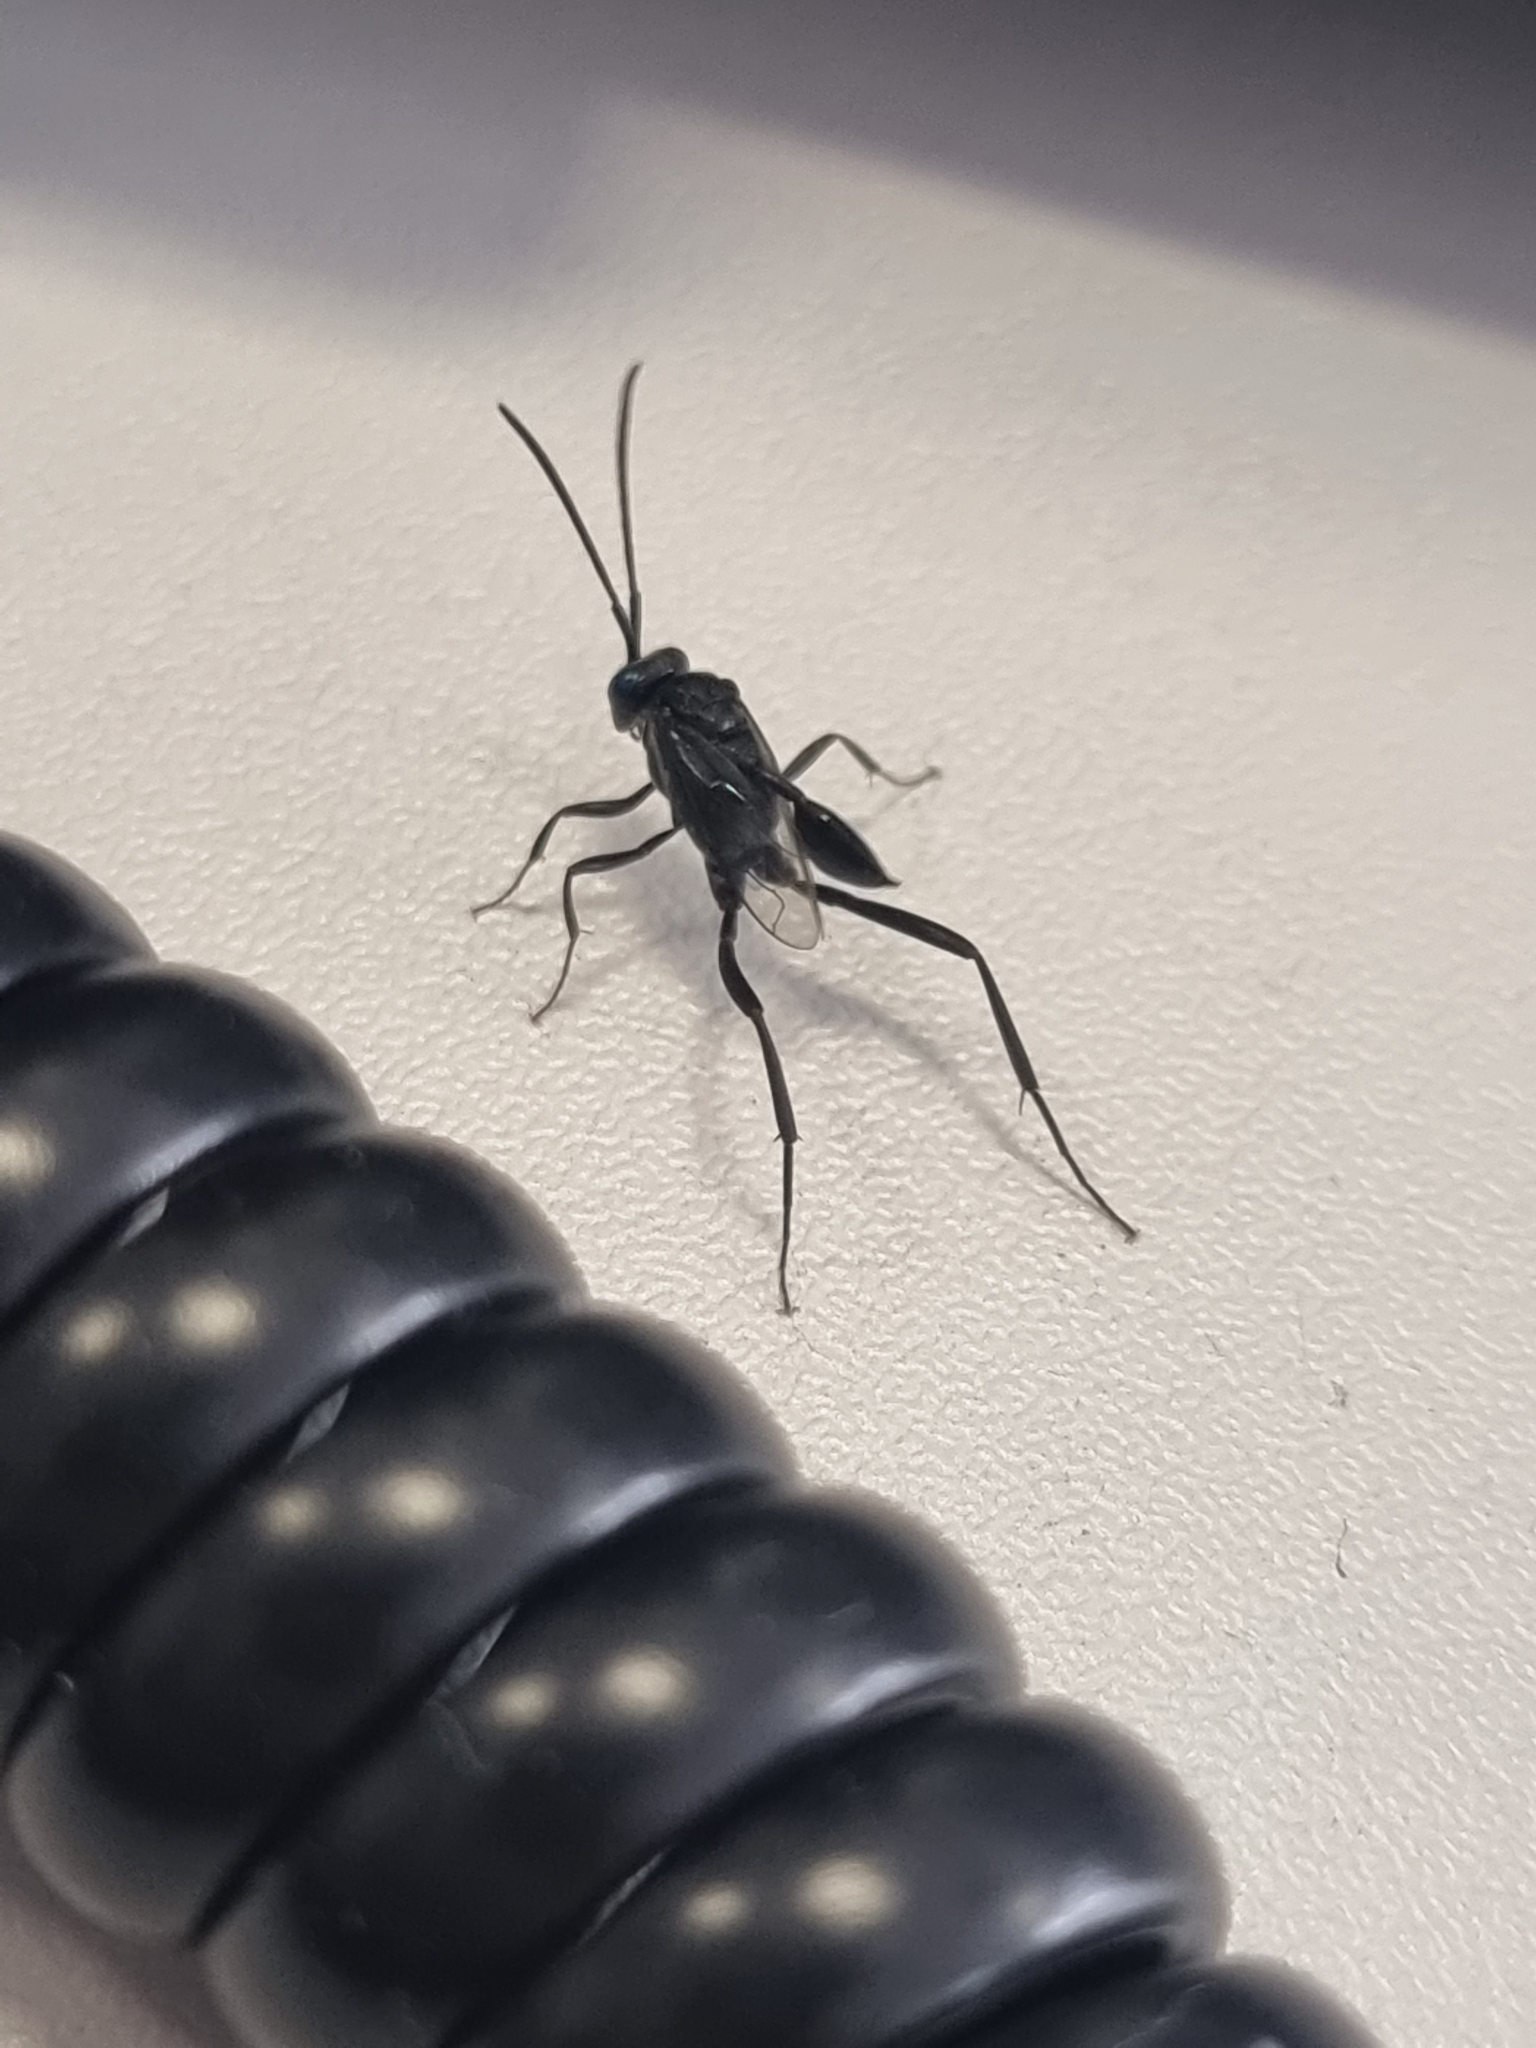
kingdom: Animalia
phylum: Arthropoda
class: Insecta
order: Hymenoptera
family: Evaniidae
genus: Evania
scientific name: Evania appendigaster
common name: Ensign wasp
